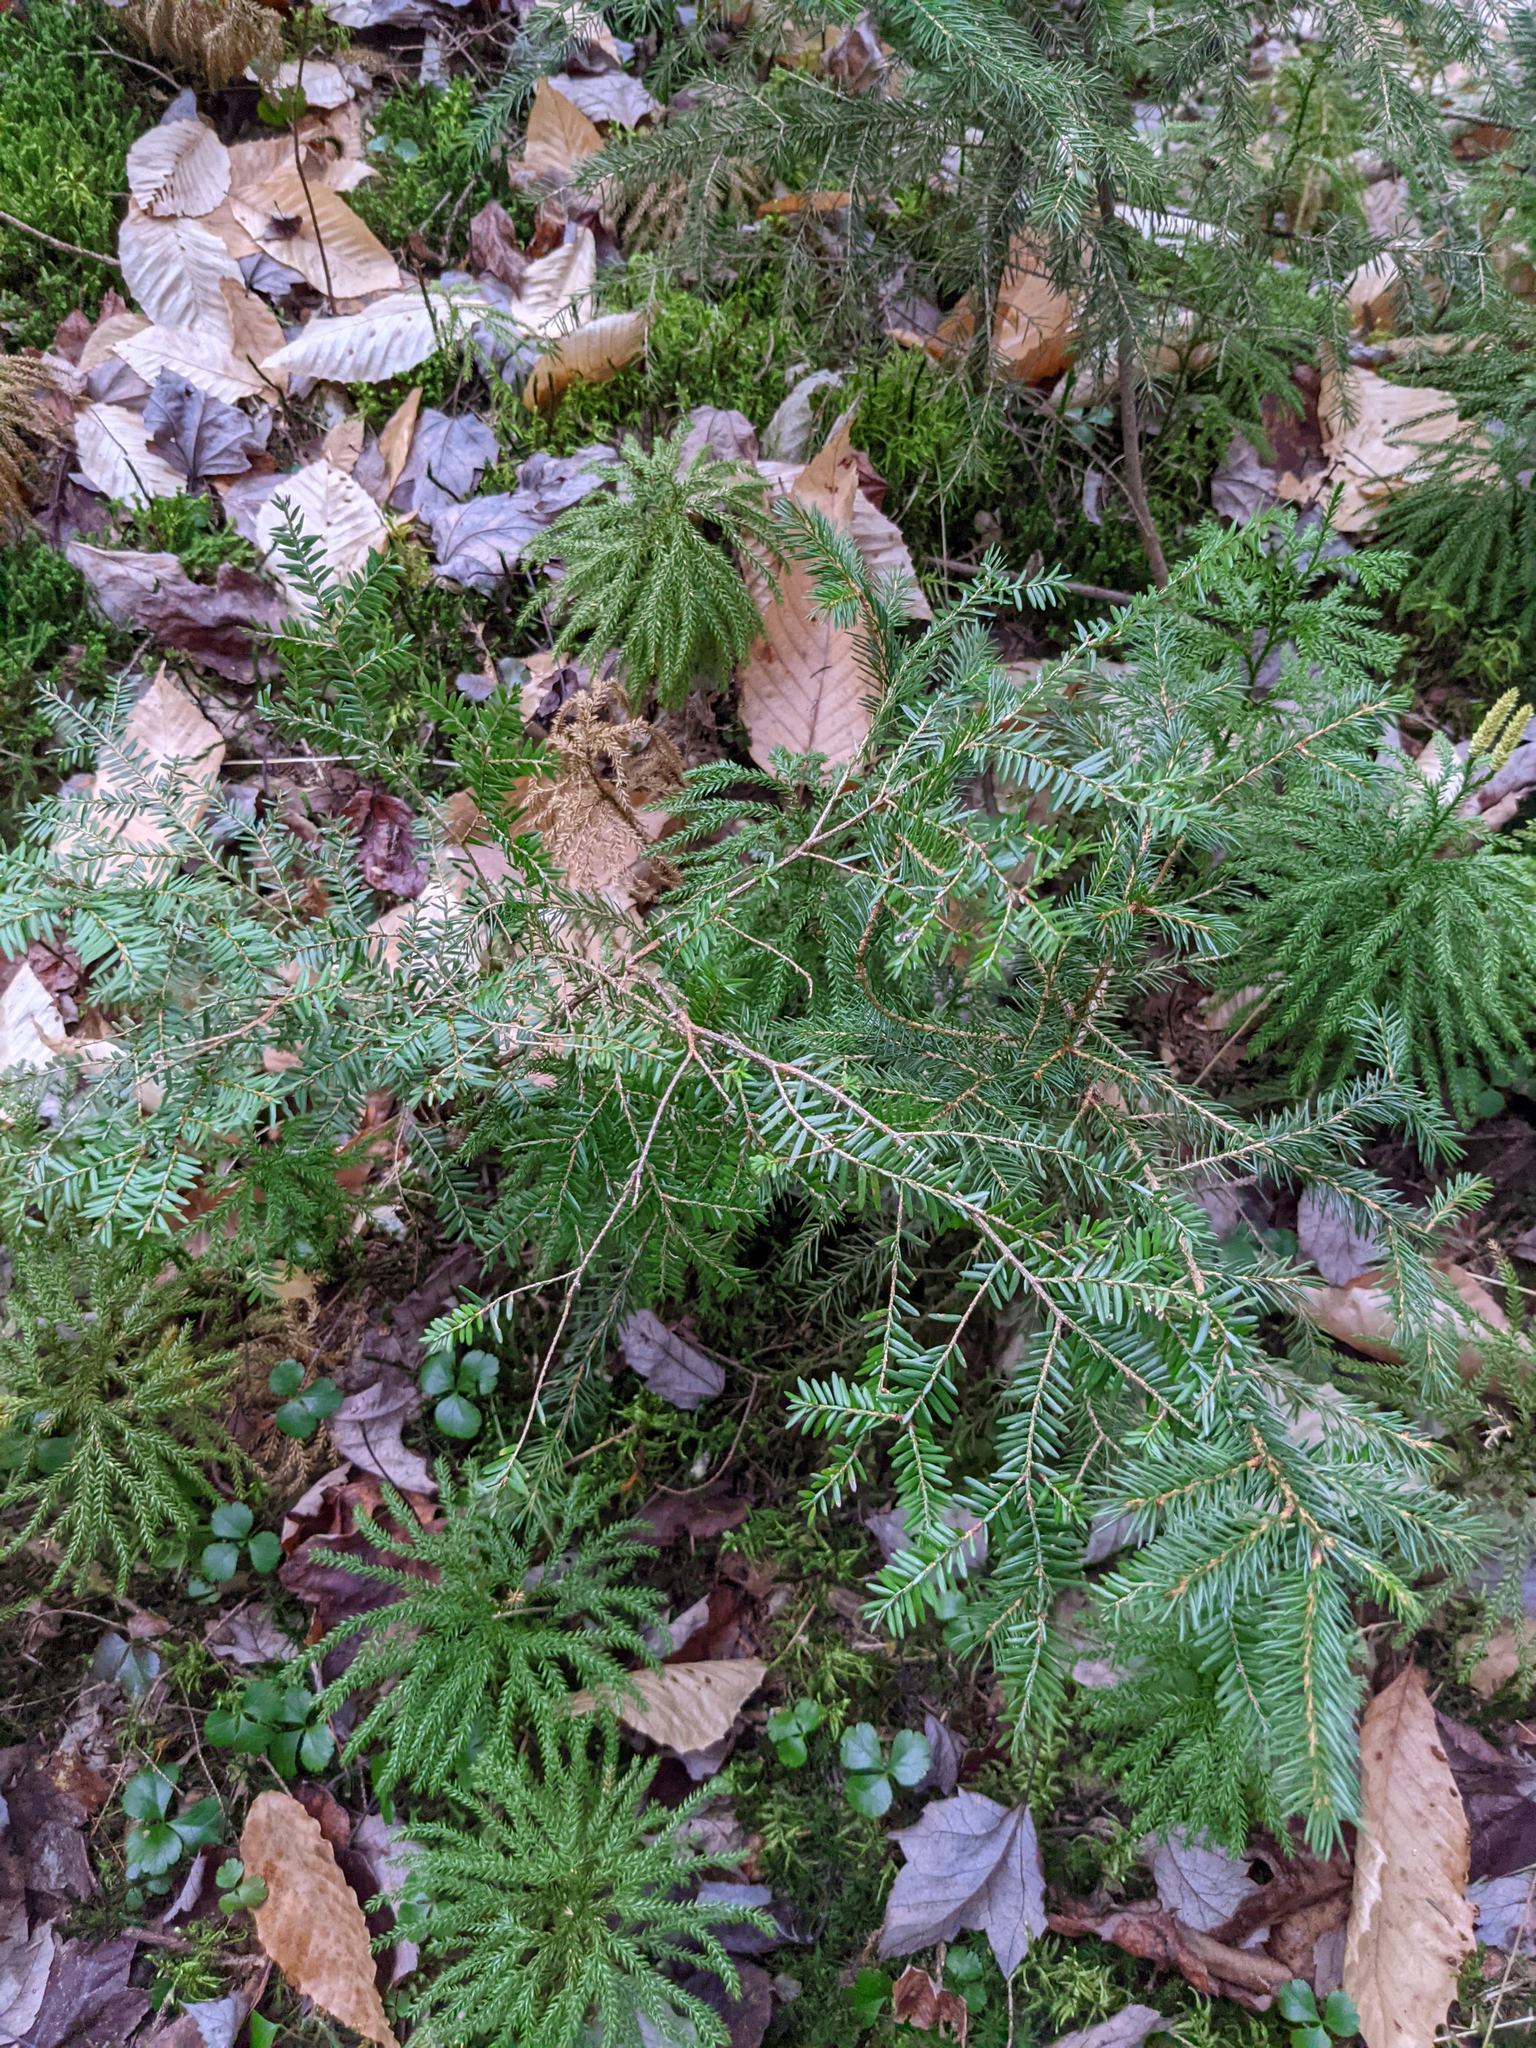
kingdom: Plantae
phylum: Tracheophyta
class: Pinopsida
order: Pinales
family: Pinaceae
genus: Tsuga
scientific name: Tsuga canadensis
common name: Eastern hemlock
